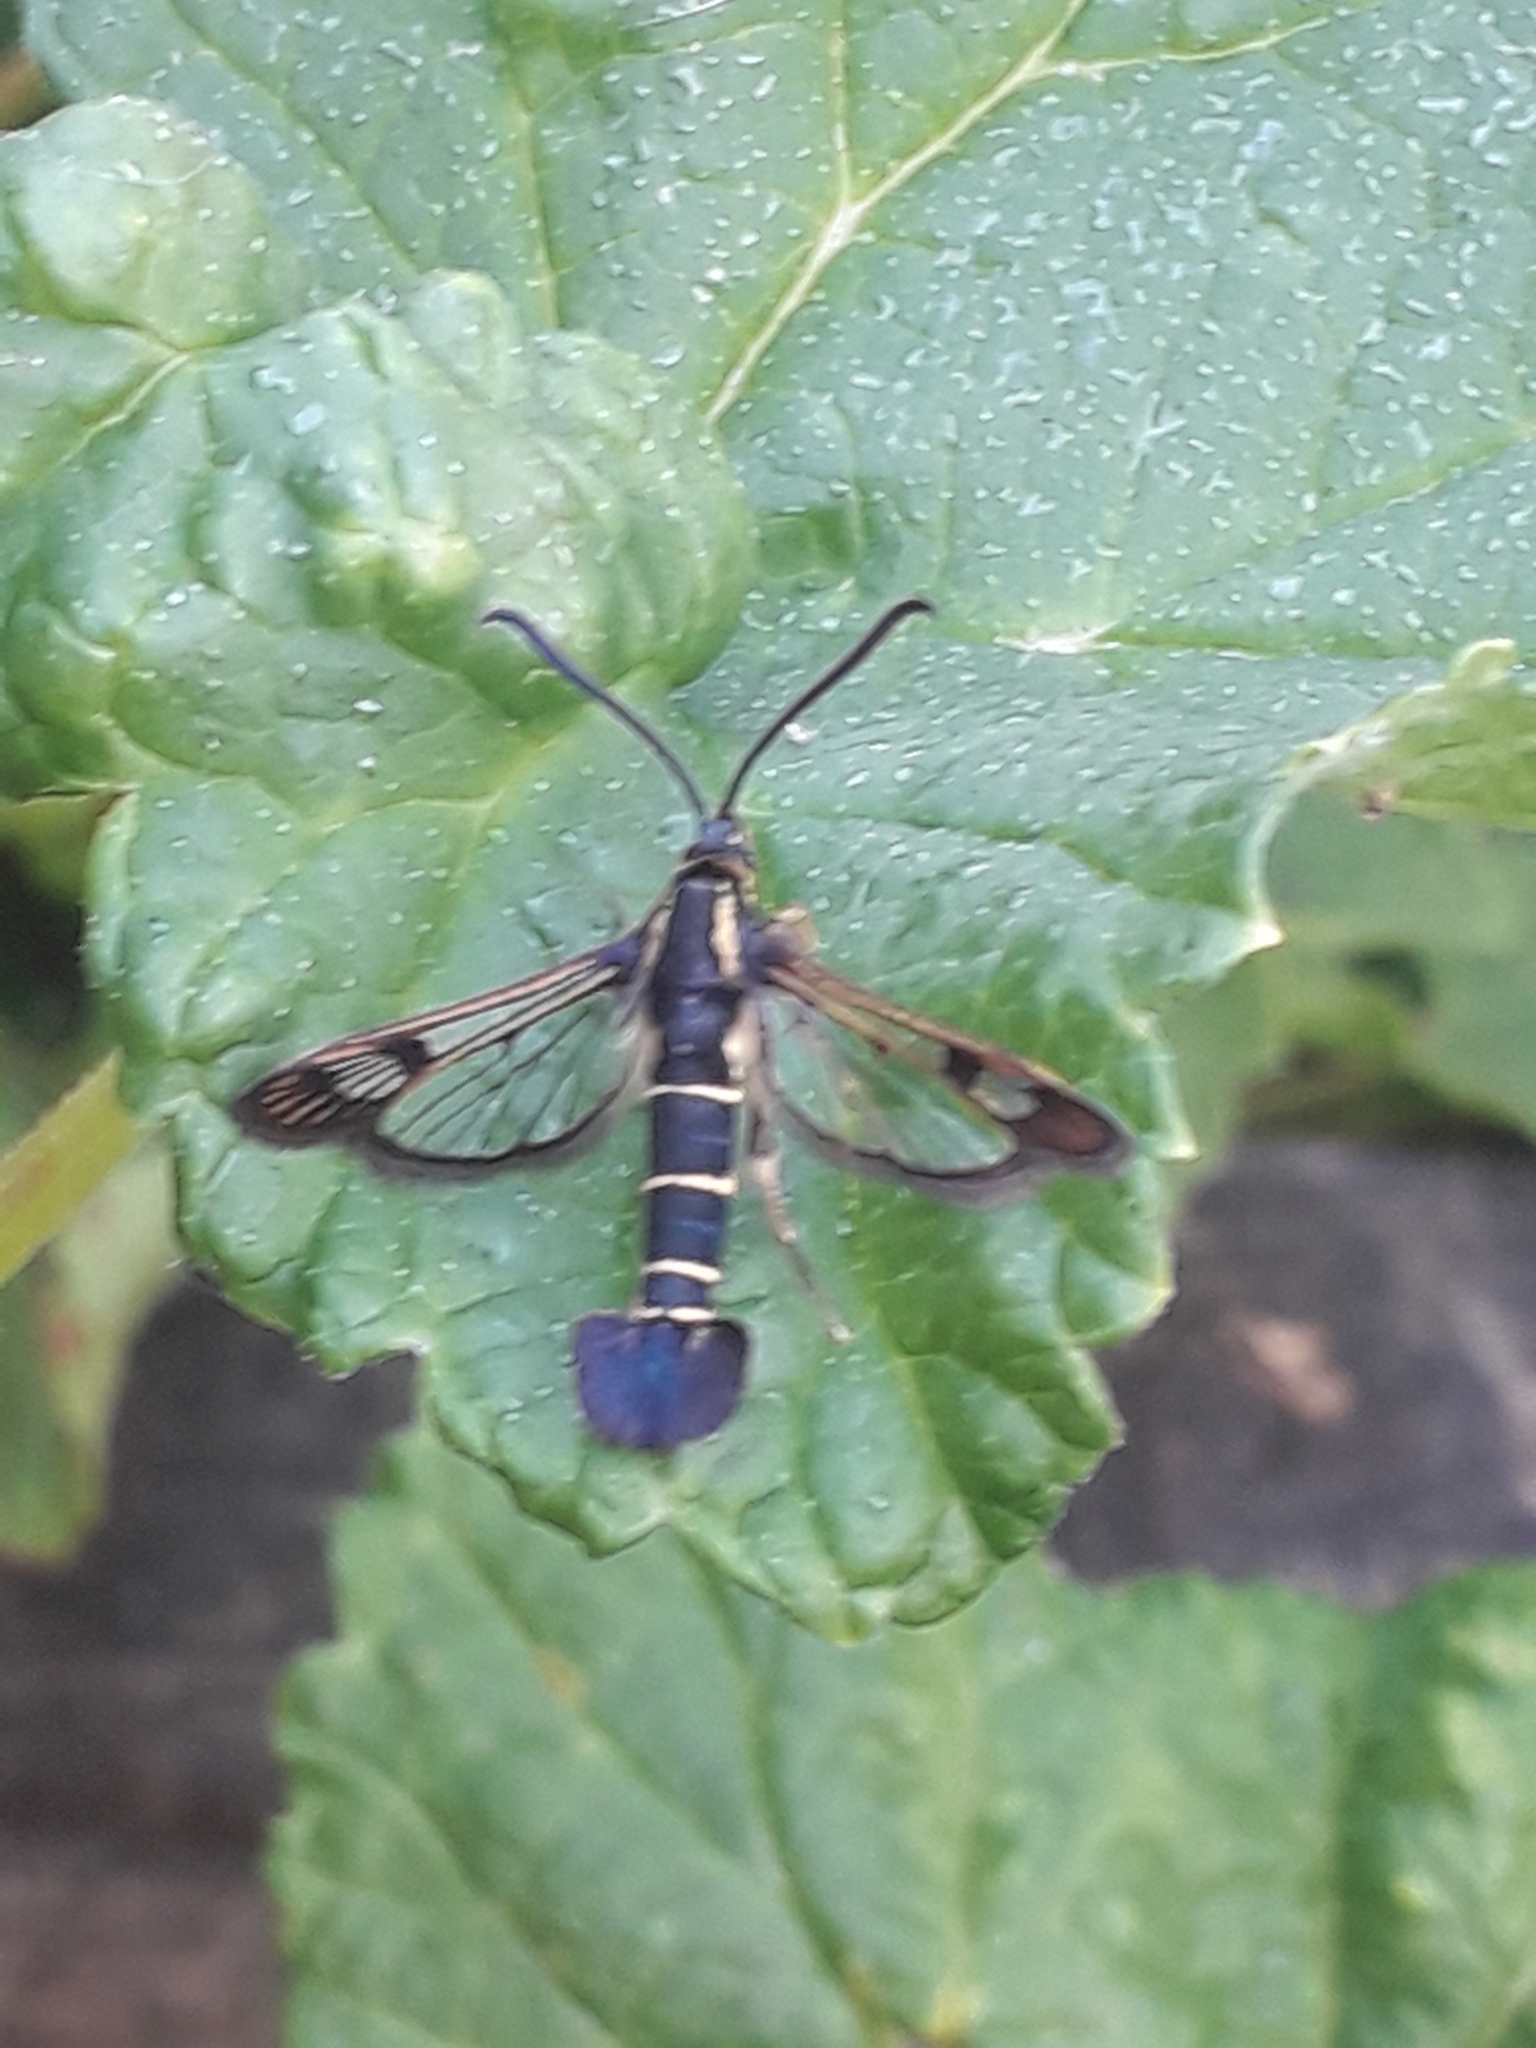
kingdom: Animalia
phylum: Arthropoda
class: Insecta
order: Lepidoptera
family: Sesiidae
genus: Synanthedon
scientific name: Synanthedon tipuliformis
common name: Currant clearwing
